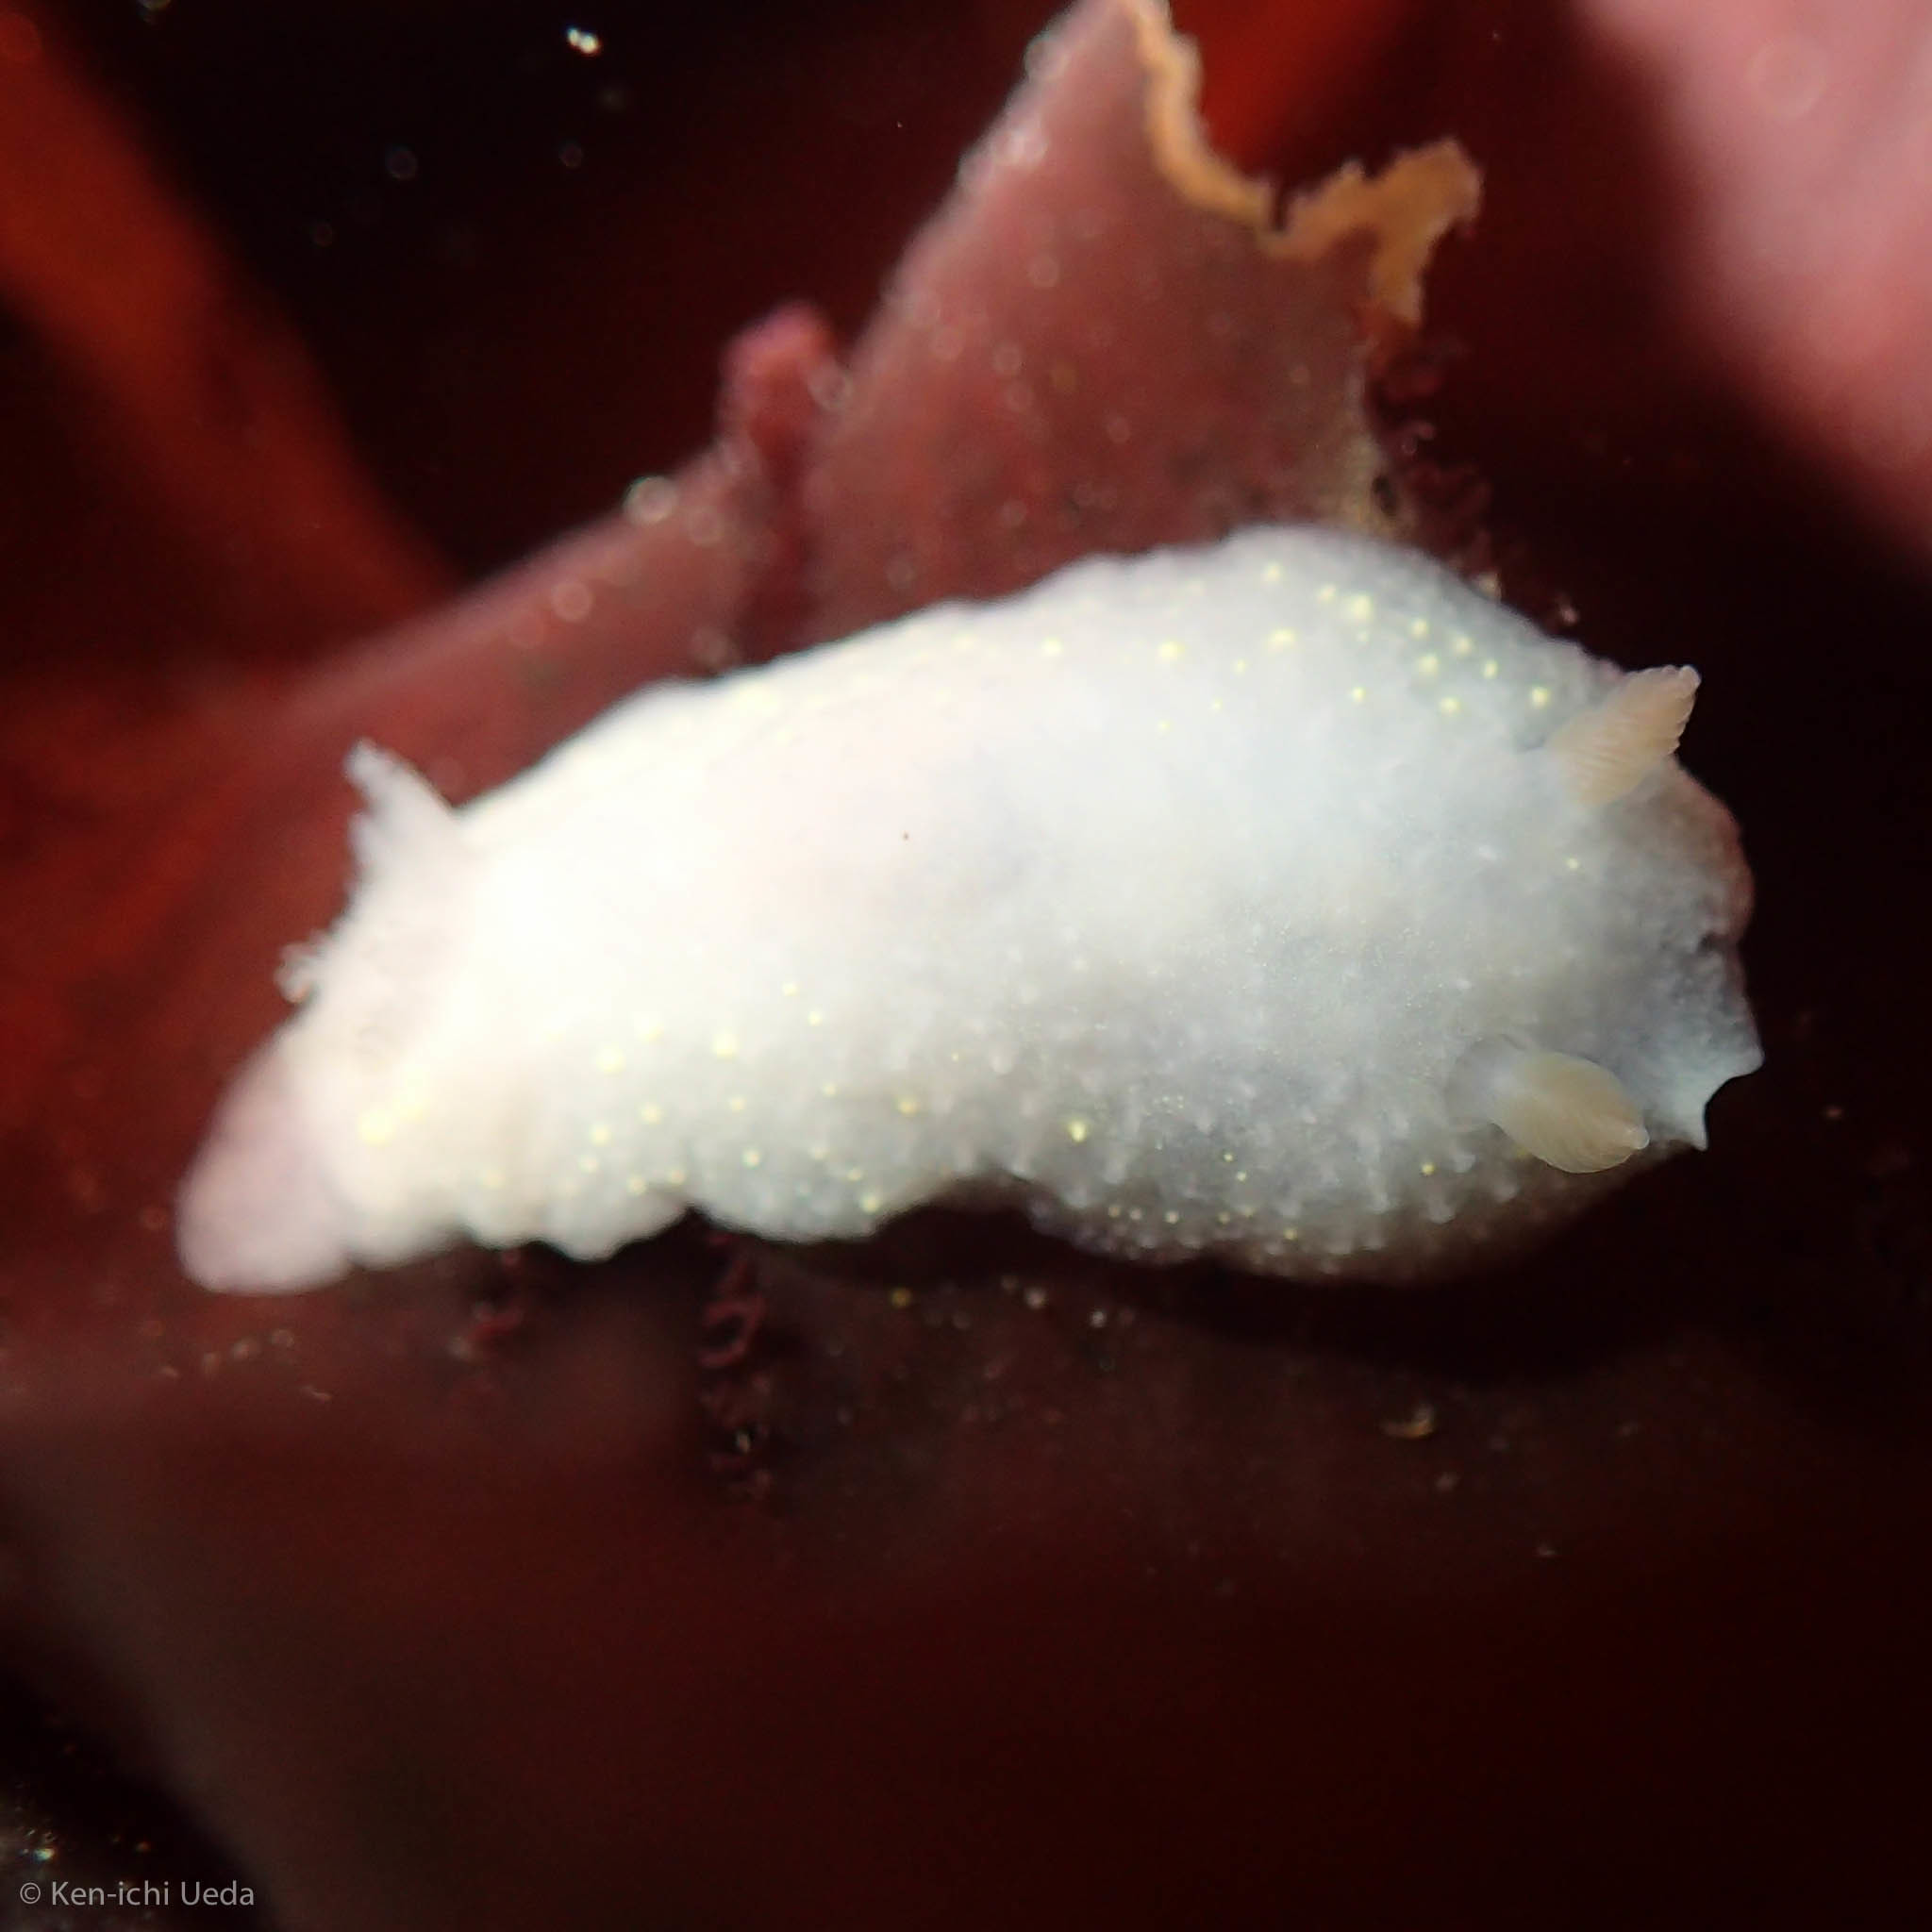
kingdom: Animalia
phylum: Mollusca
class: Gastropoda
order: Nudibranchia
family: Cadlinidae
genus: Cadlina
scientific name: Cadlina modesta
